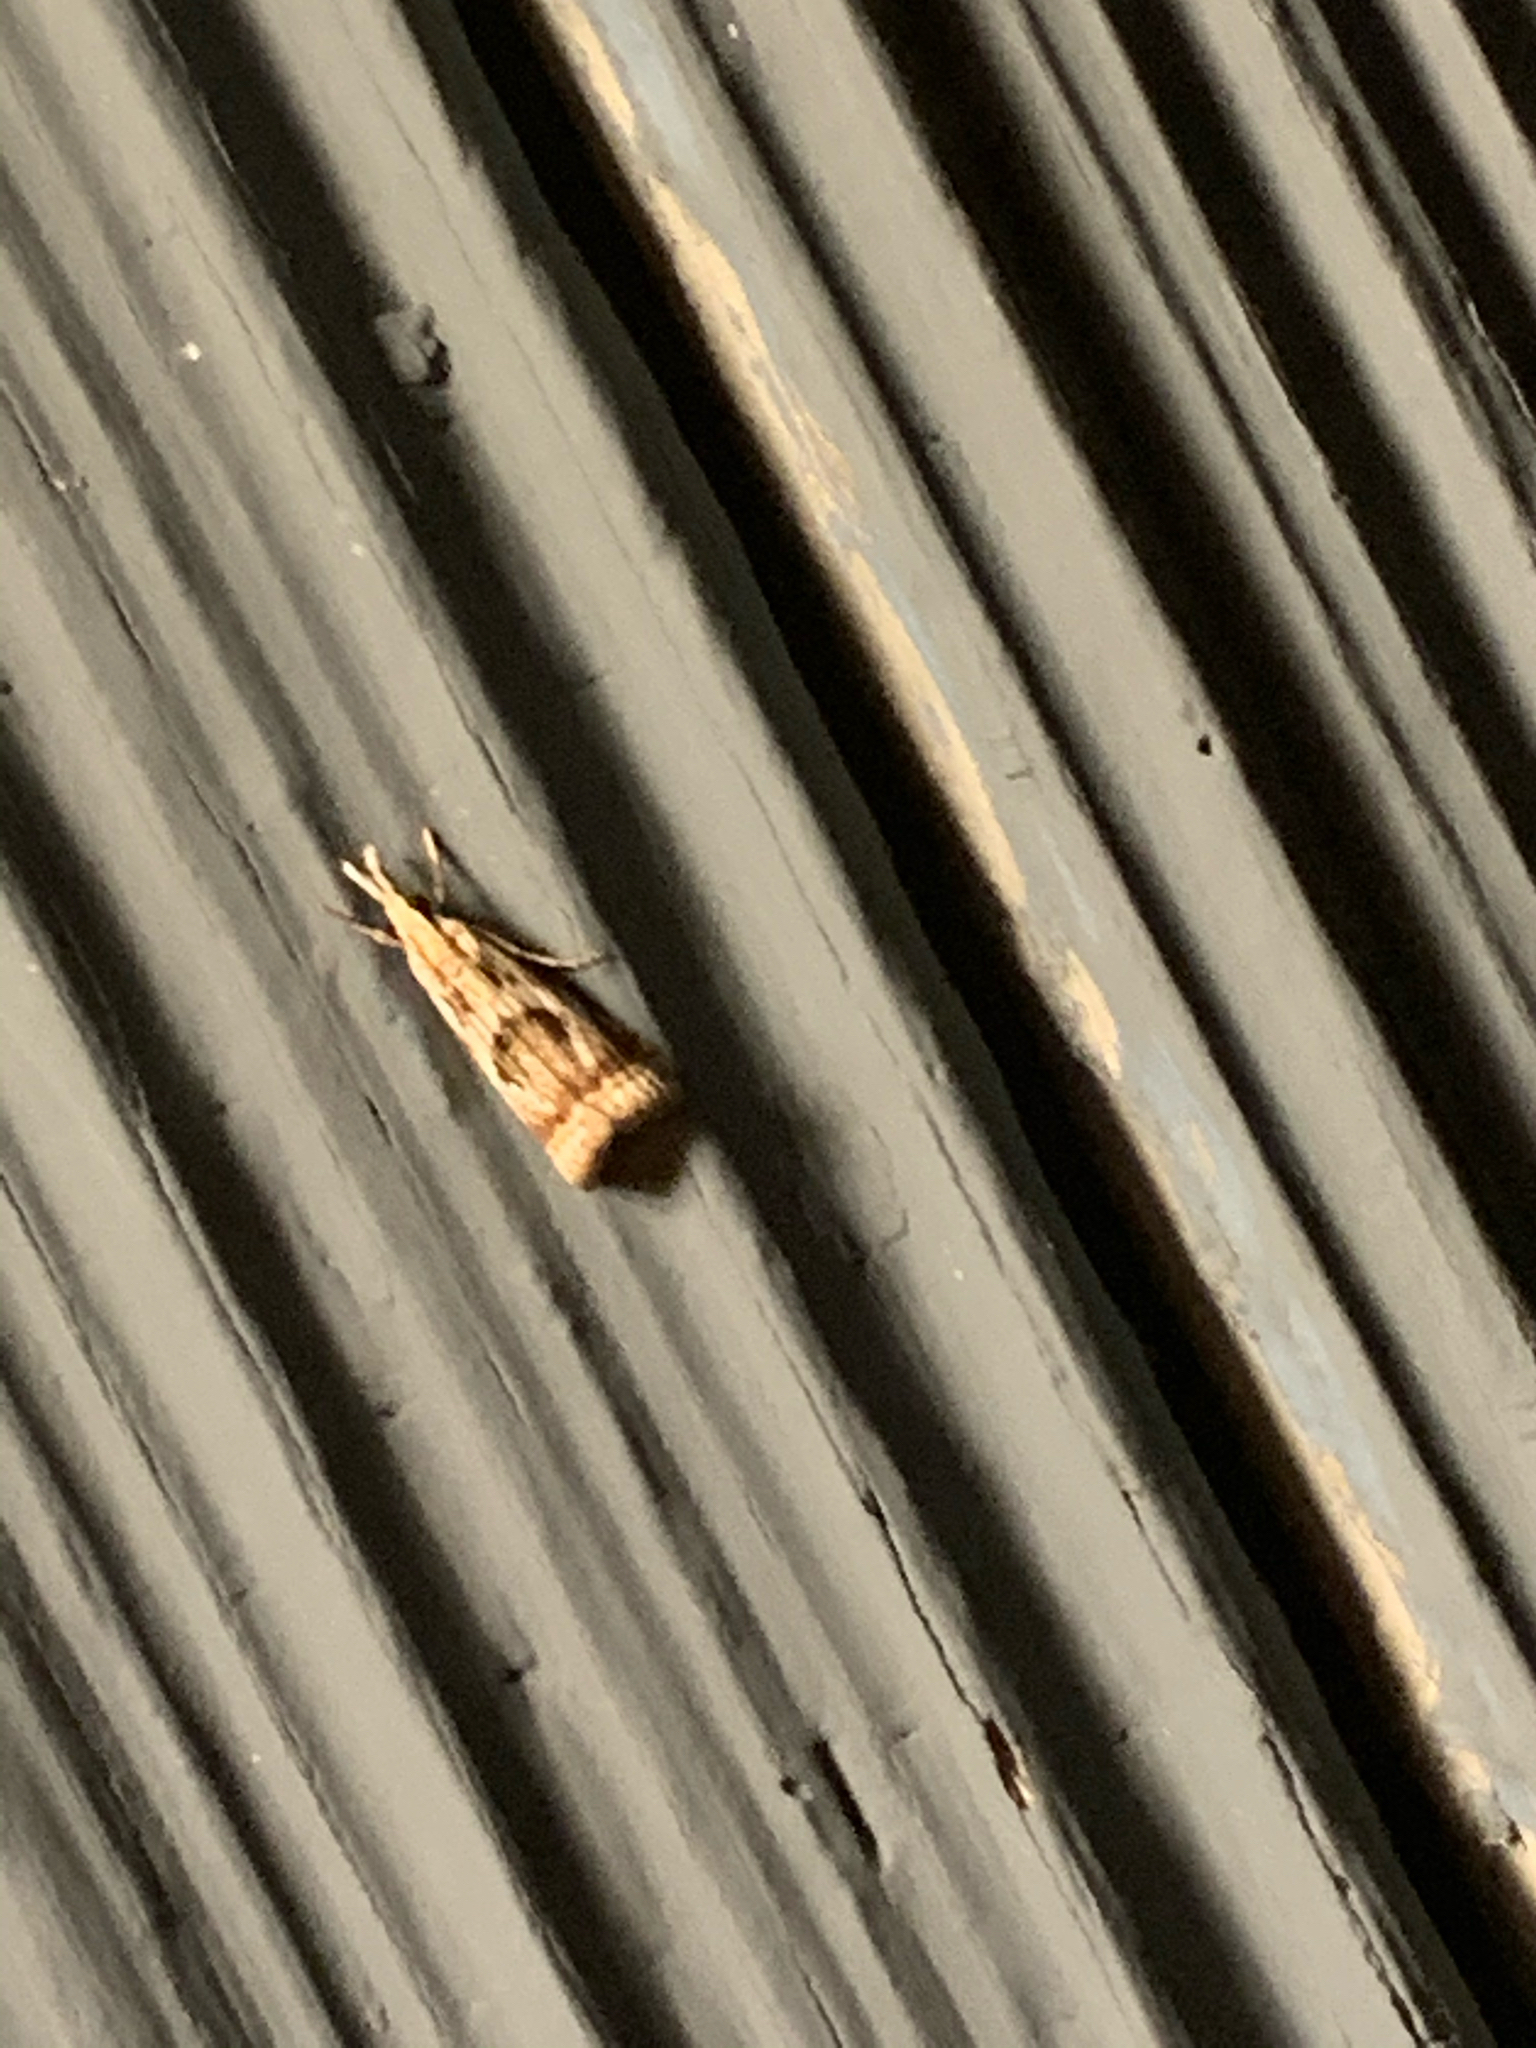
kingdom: Animalia
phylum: Arthropoda
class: Insecta
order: Lepidoptera
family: Crambidae
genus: Microcrambus
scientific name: Microcrambus elegans
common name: Elegant grass-veneer
